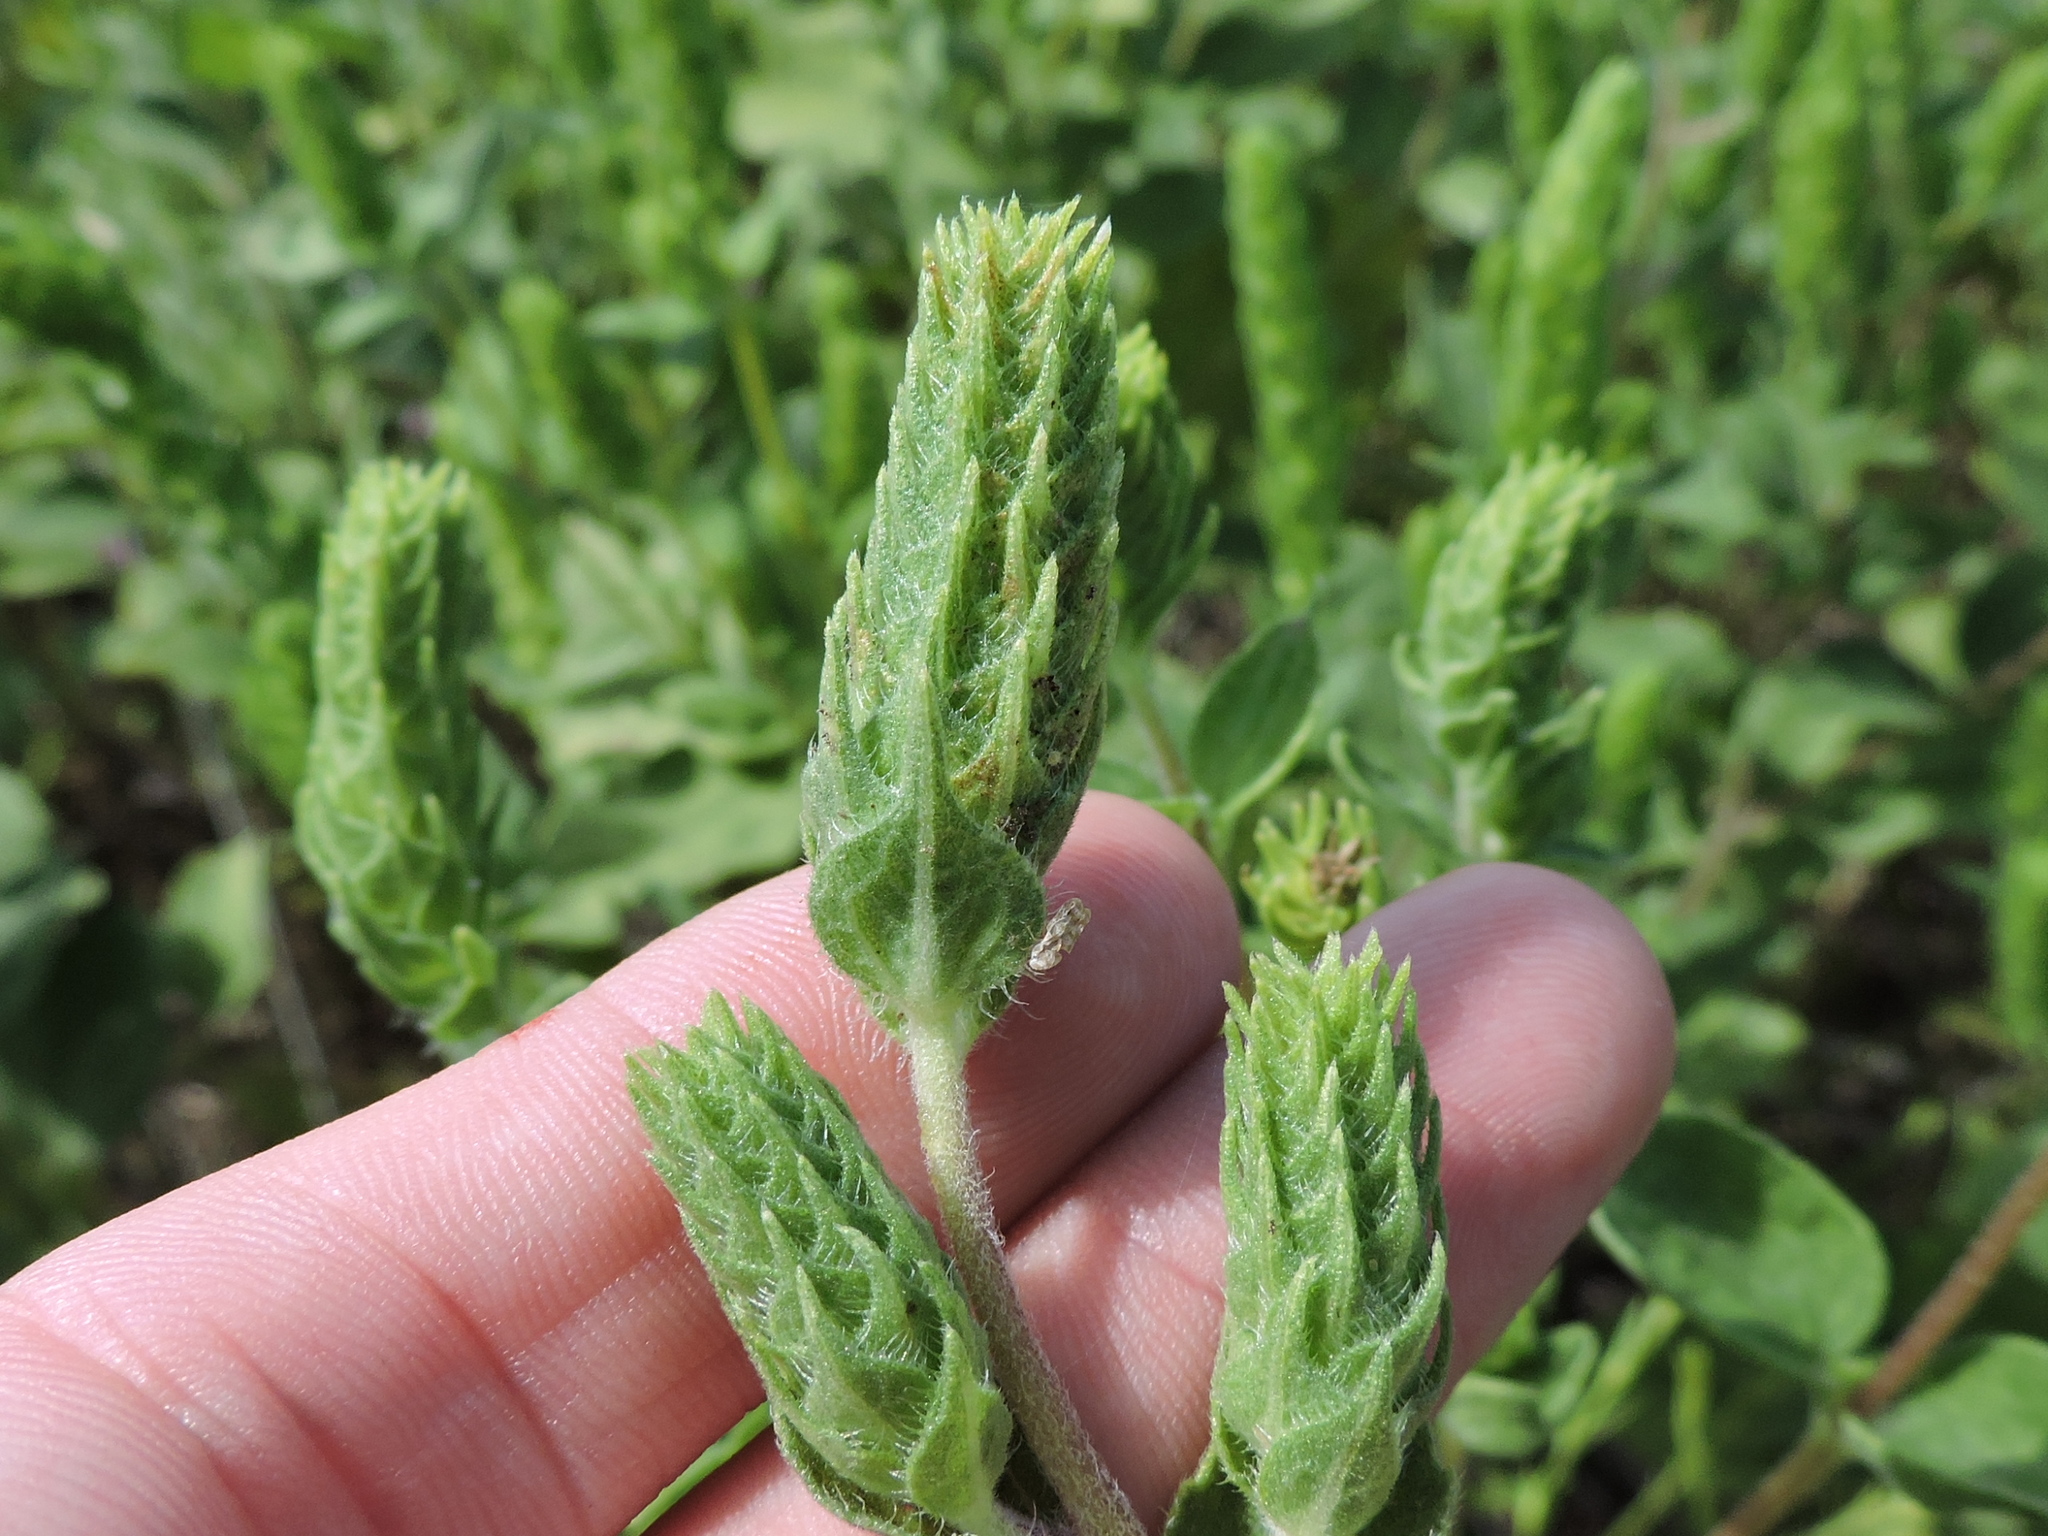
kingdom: Plantae
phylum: Tracheophyta
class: Magnoliopsida
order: Asterales
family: Asteraceae
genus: Iva
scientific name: Iva annua
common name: Marsh-elder
